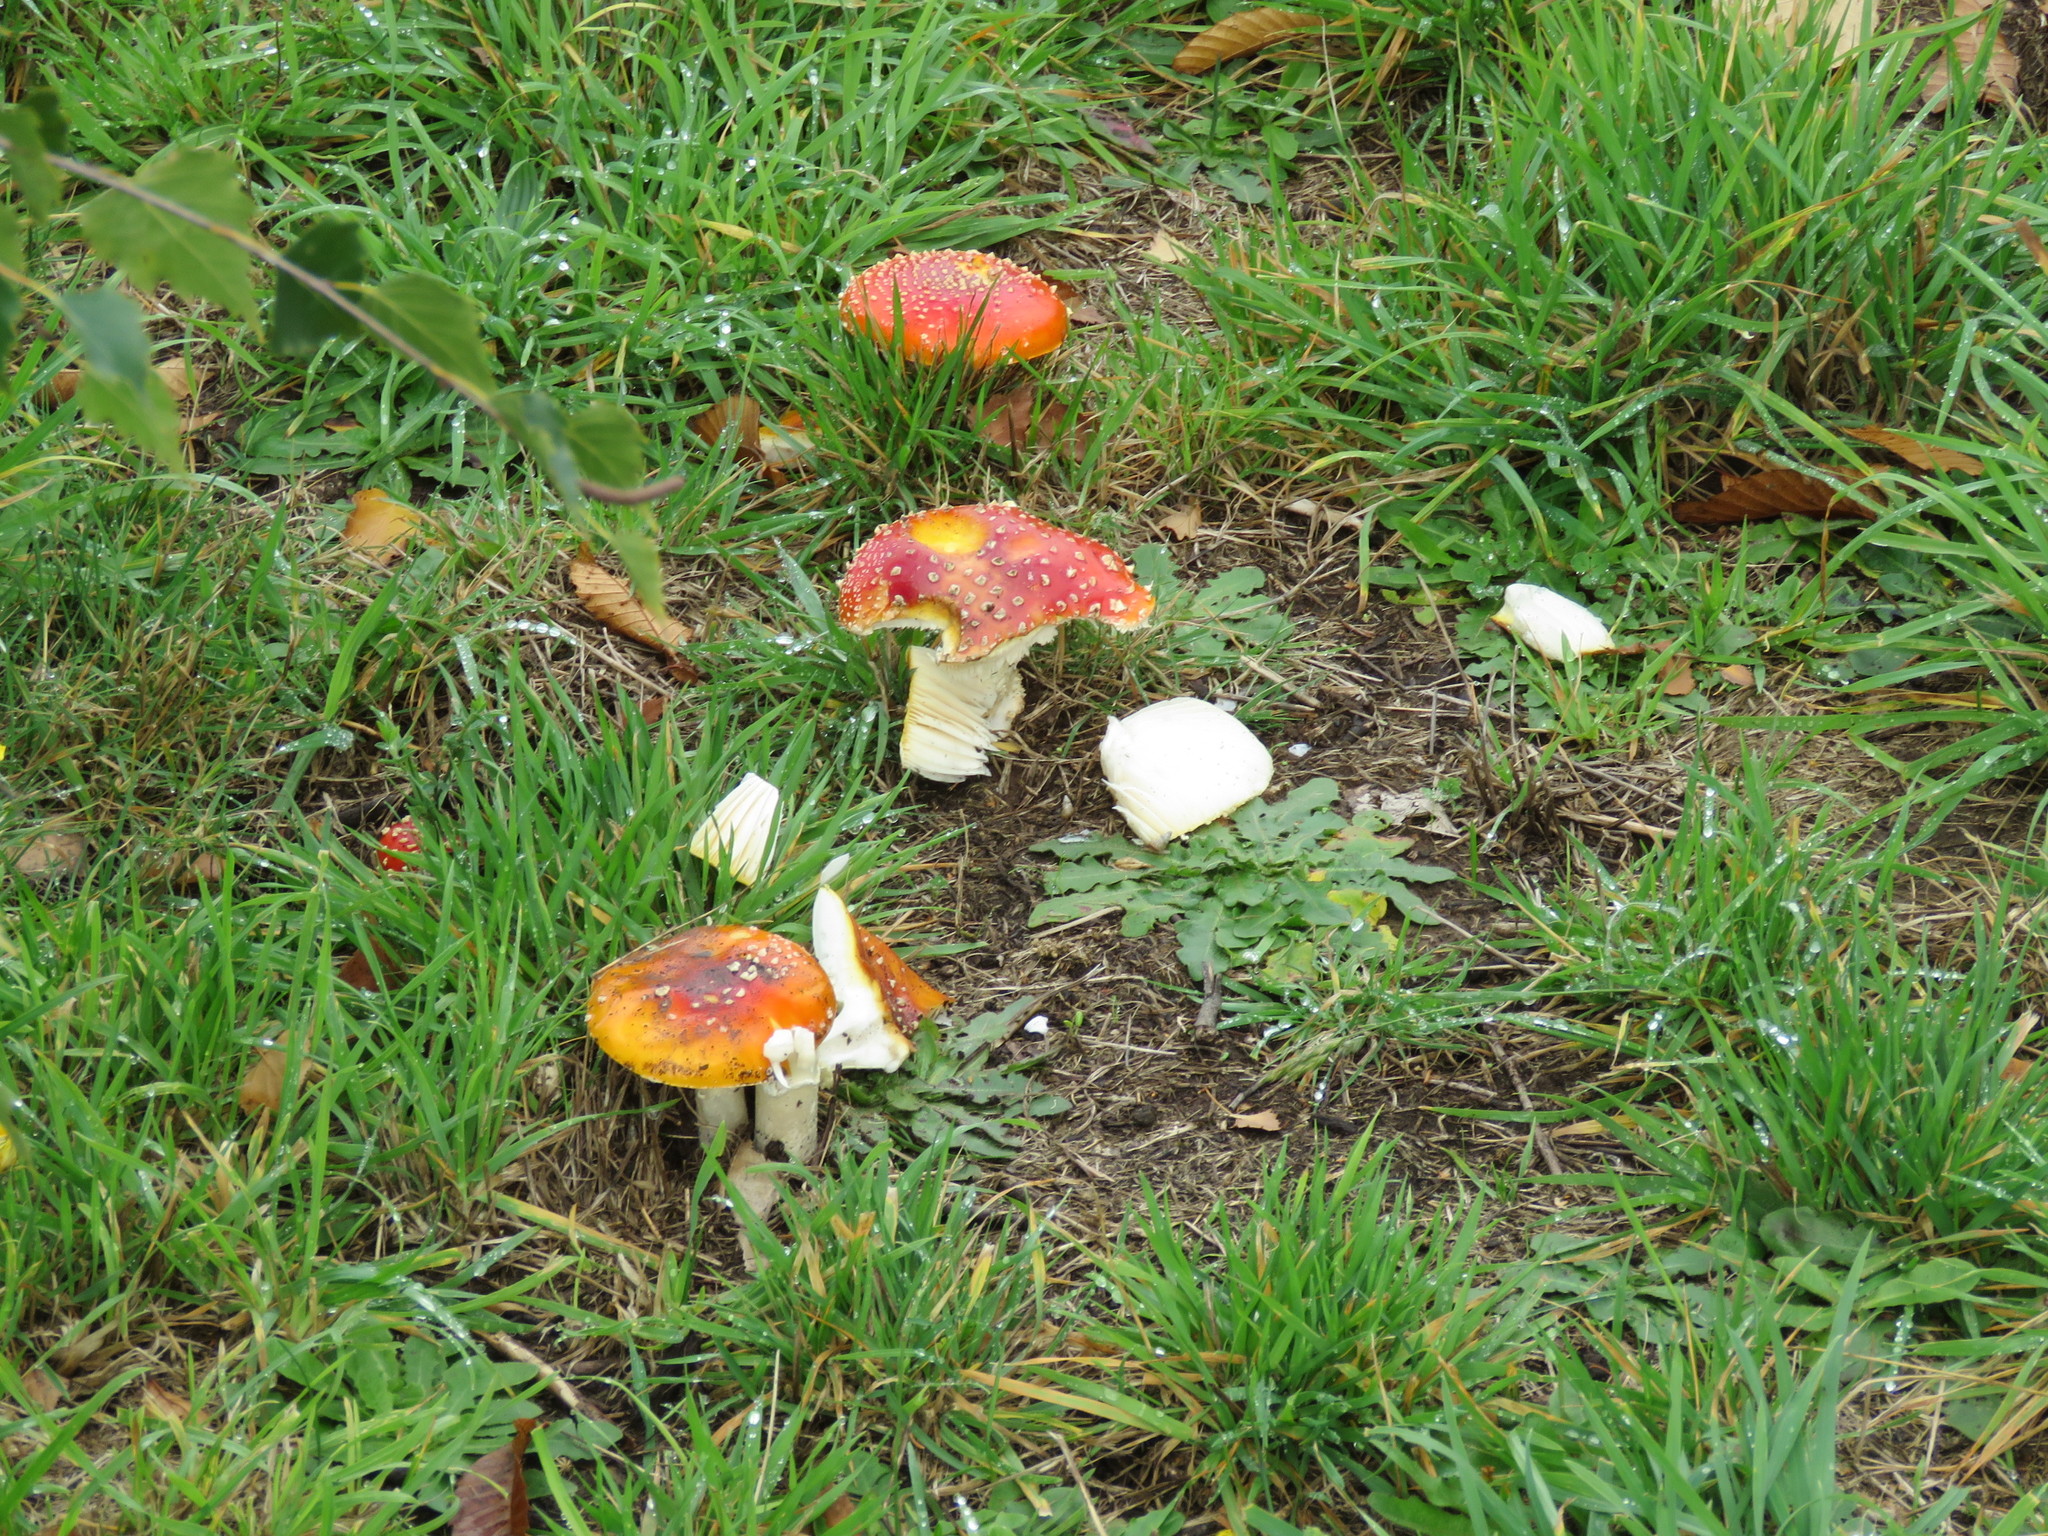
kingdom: Fungi
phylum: Basidiomycota
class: Agaricomycetes
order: Agaricales
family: Amanitaceae
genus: Amanita
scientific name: Amanita muscaria
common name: Fly agaric
